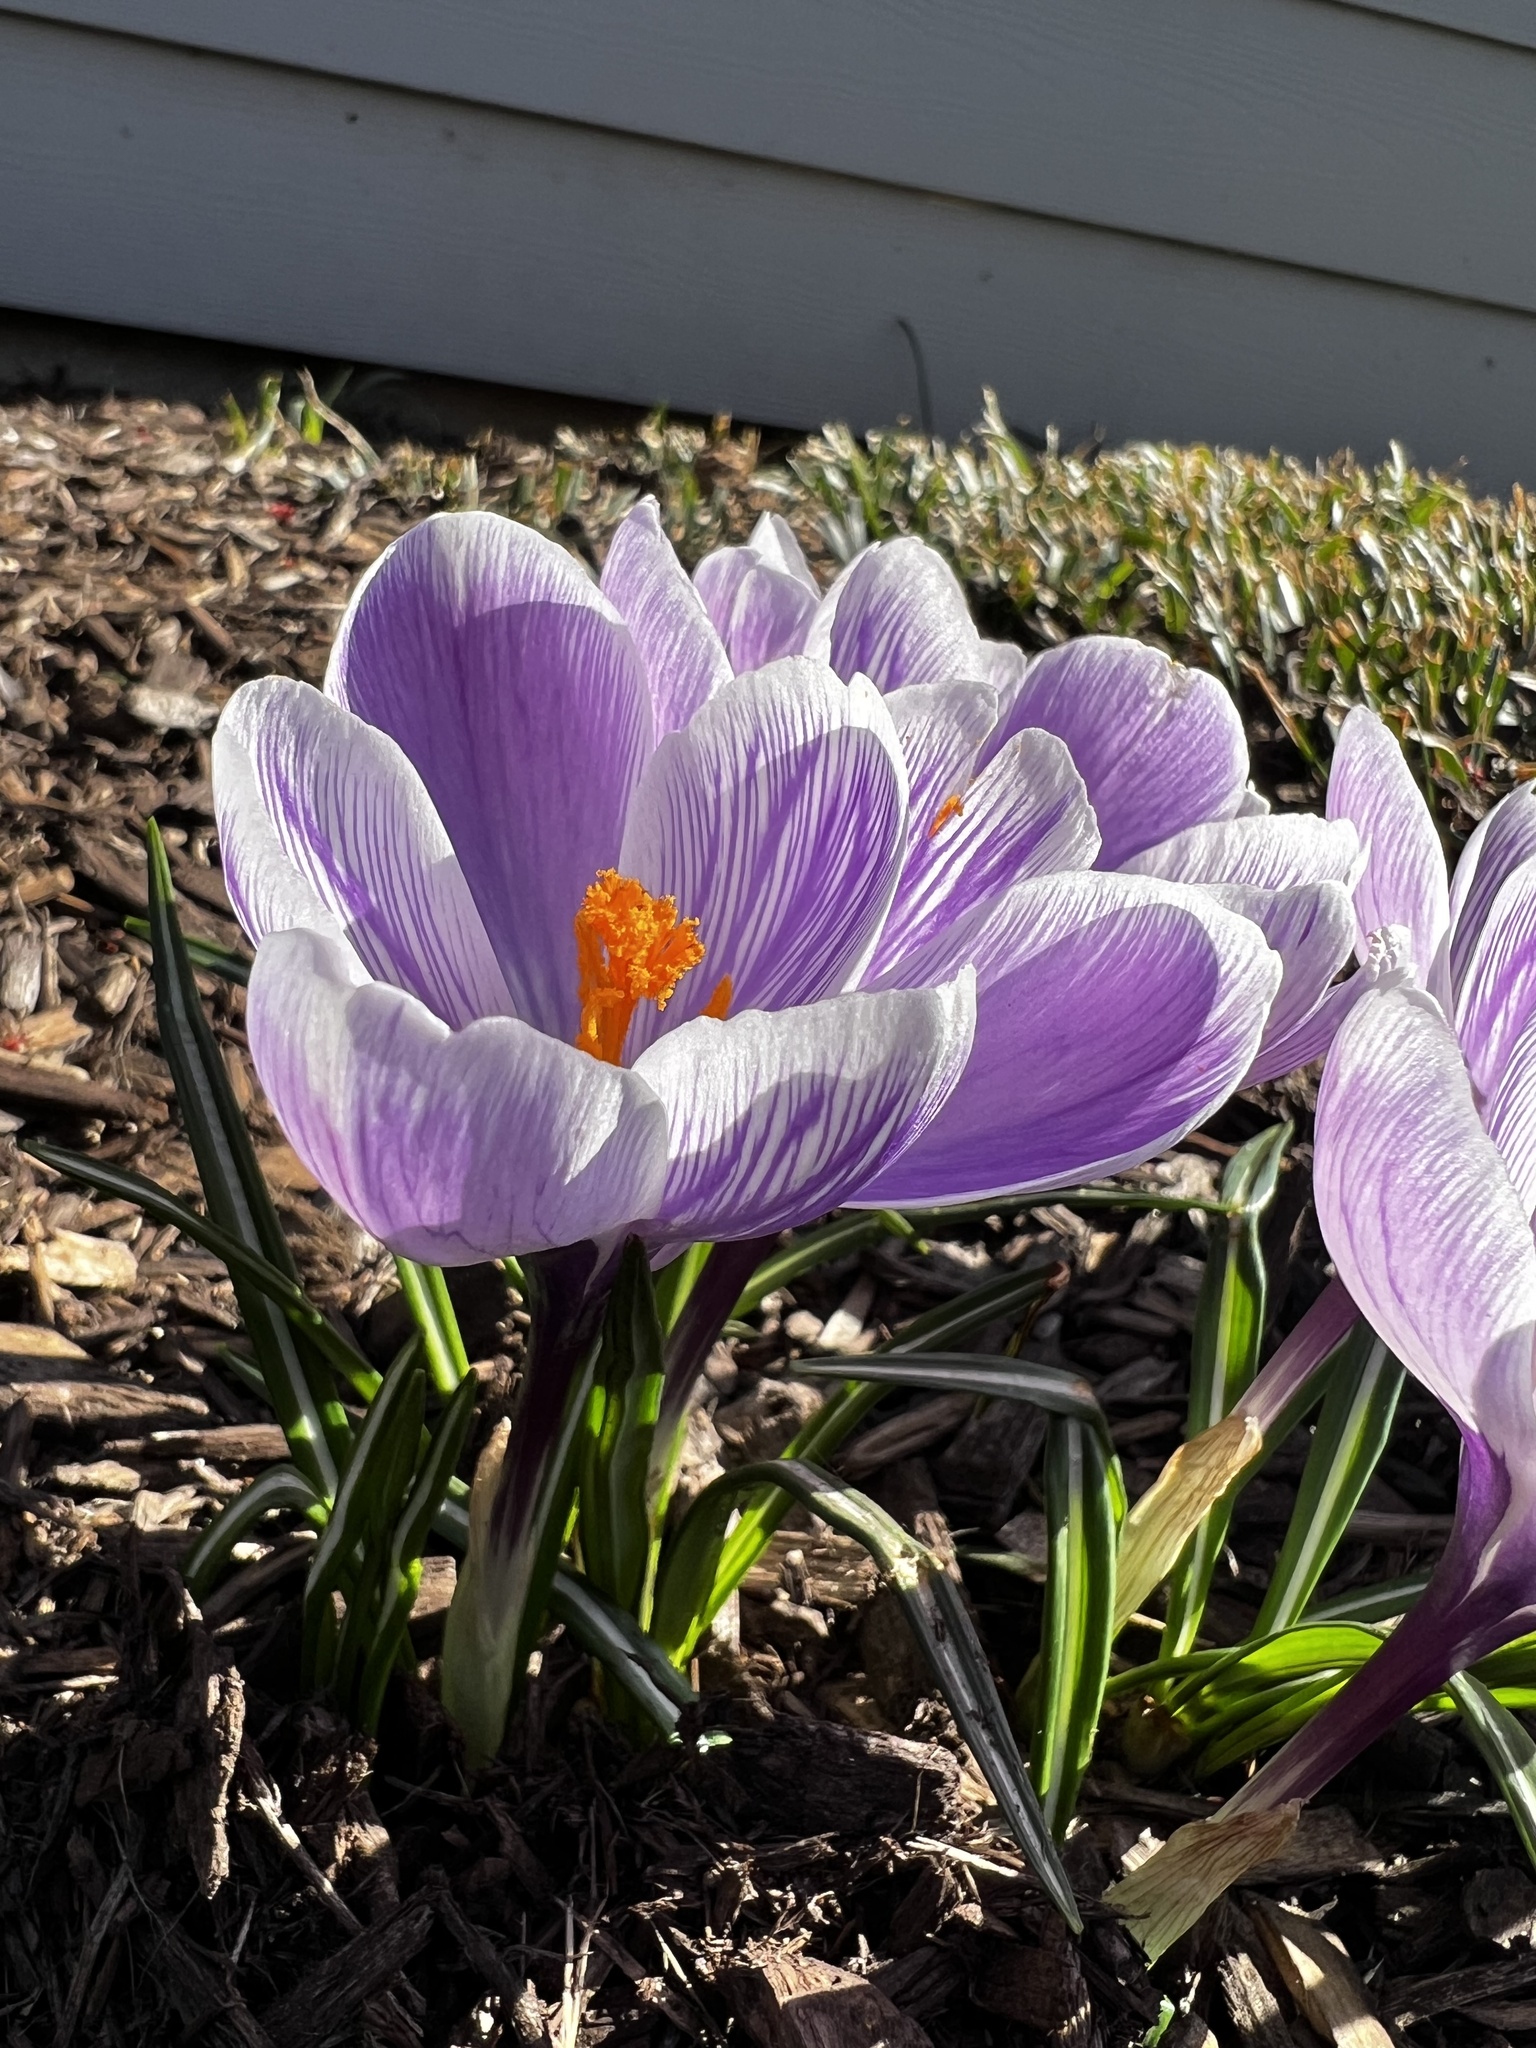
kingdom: Plantae
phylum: Tracheophyta
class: Liliopsida
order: Asparagales
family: Iridaceae
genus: Crocus
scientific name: Crocus vernus
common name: Spring crocus
